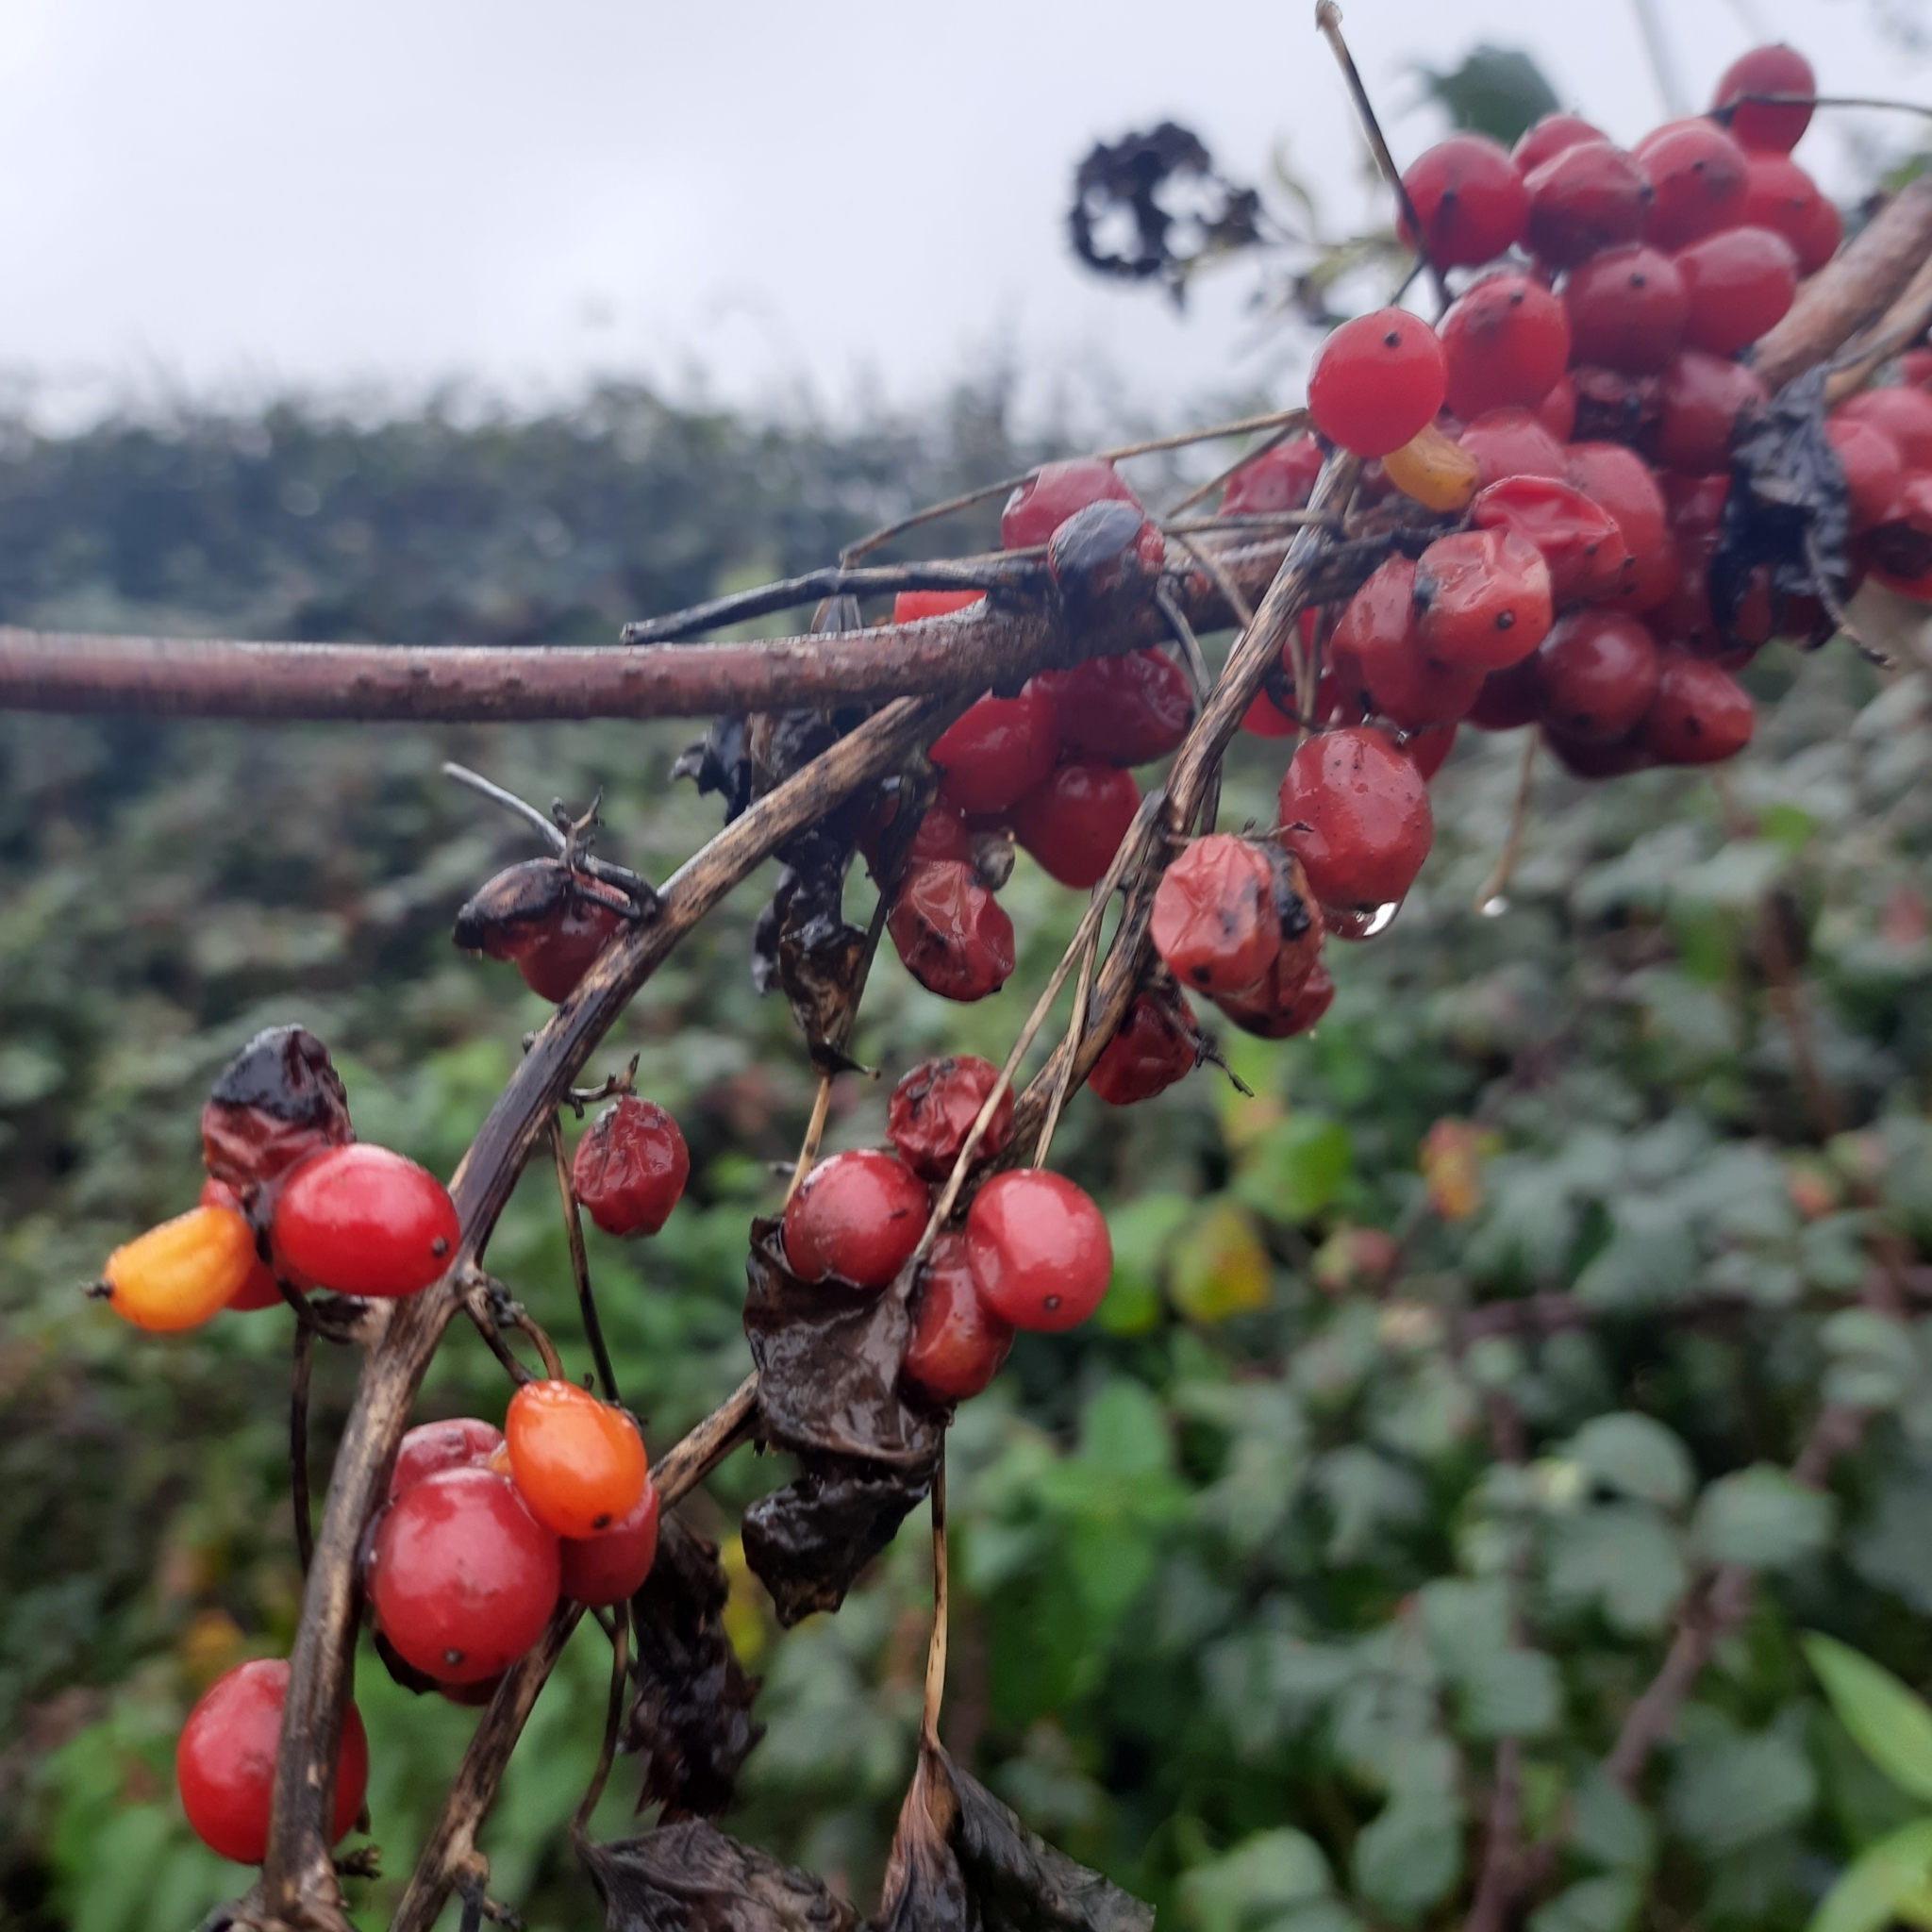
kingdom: Plantae
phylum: Tracheophyta
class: Liliopsida
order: Dioscoreales
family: Dioscoreaceae
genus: Dioscorea
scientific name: Dioscorea communis
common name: Black-bindweed
